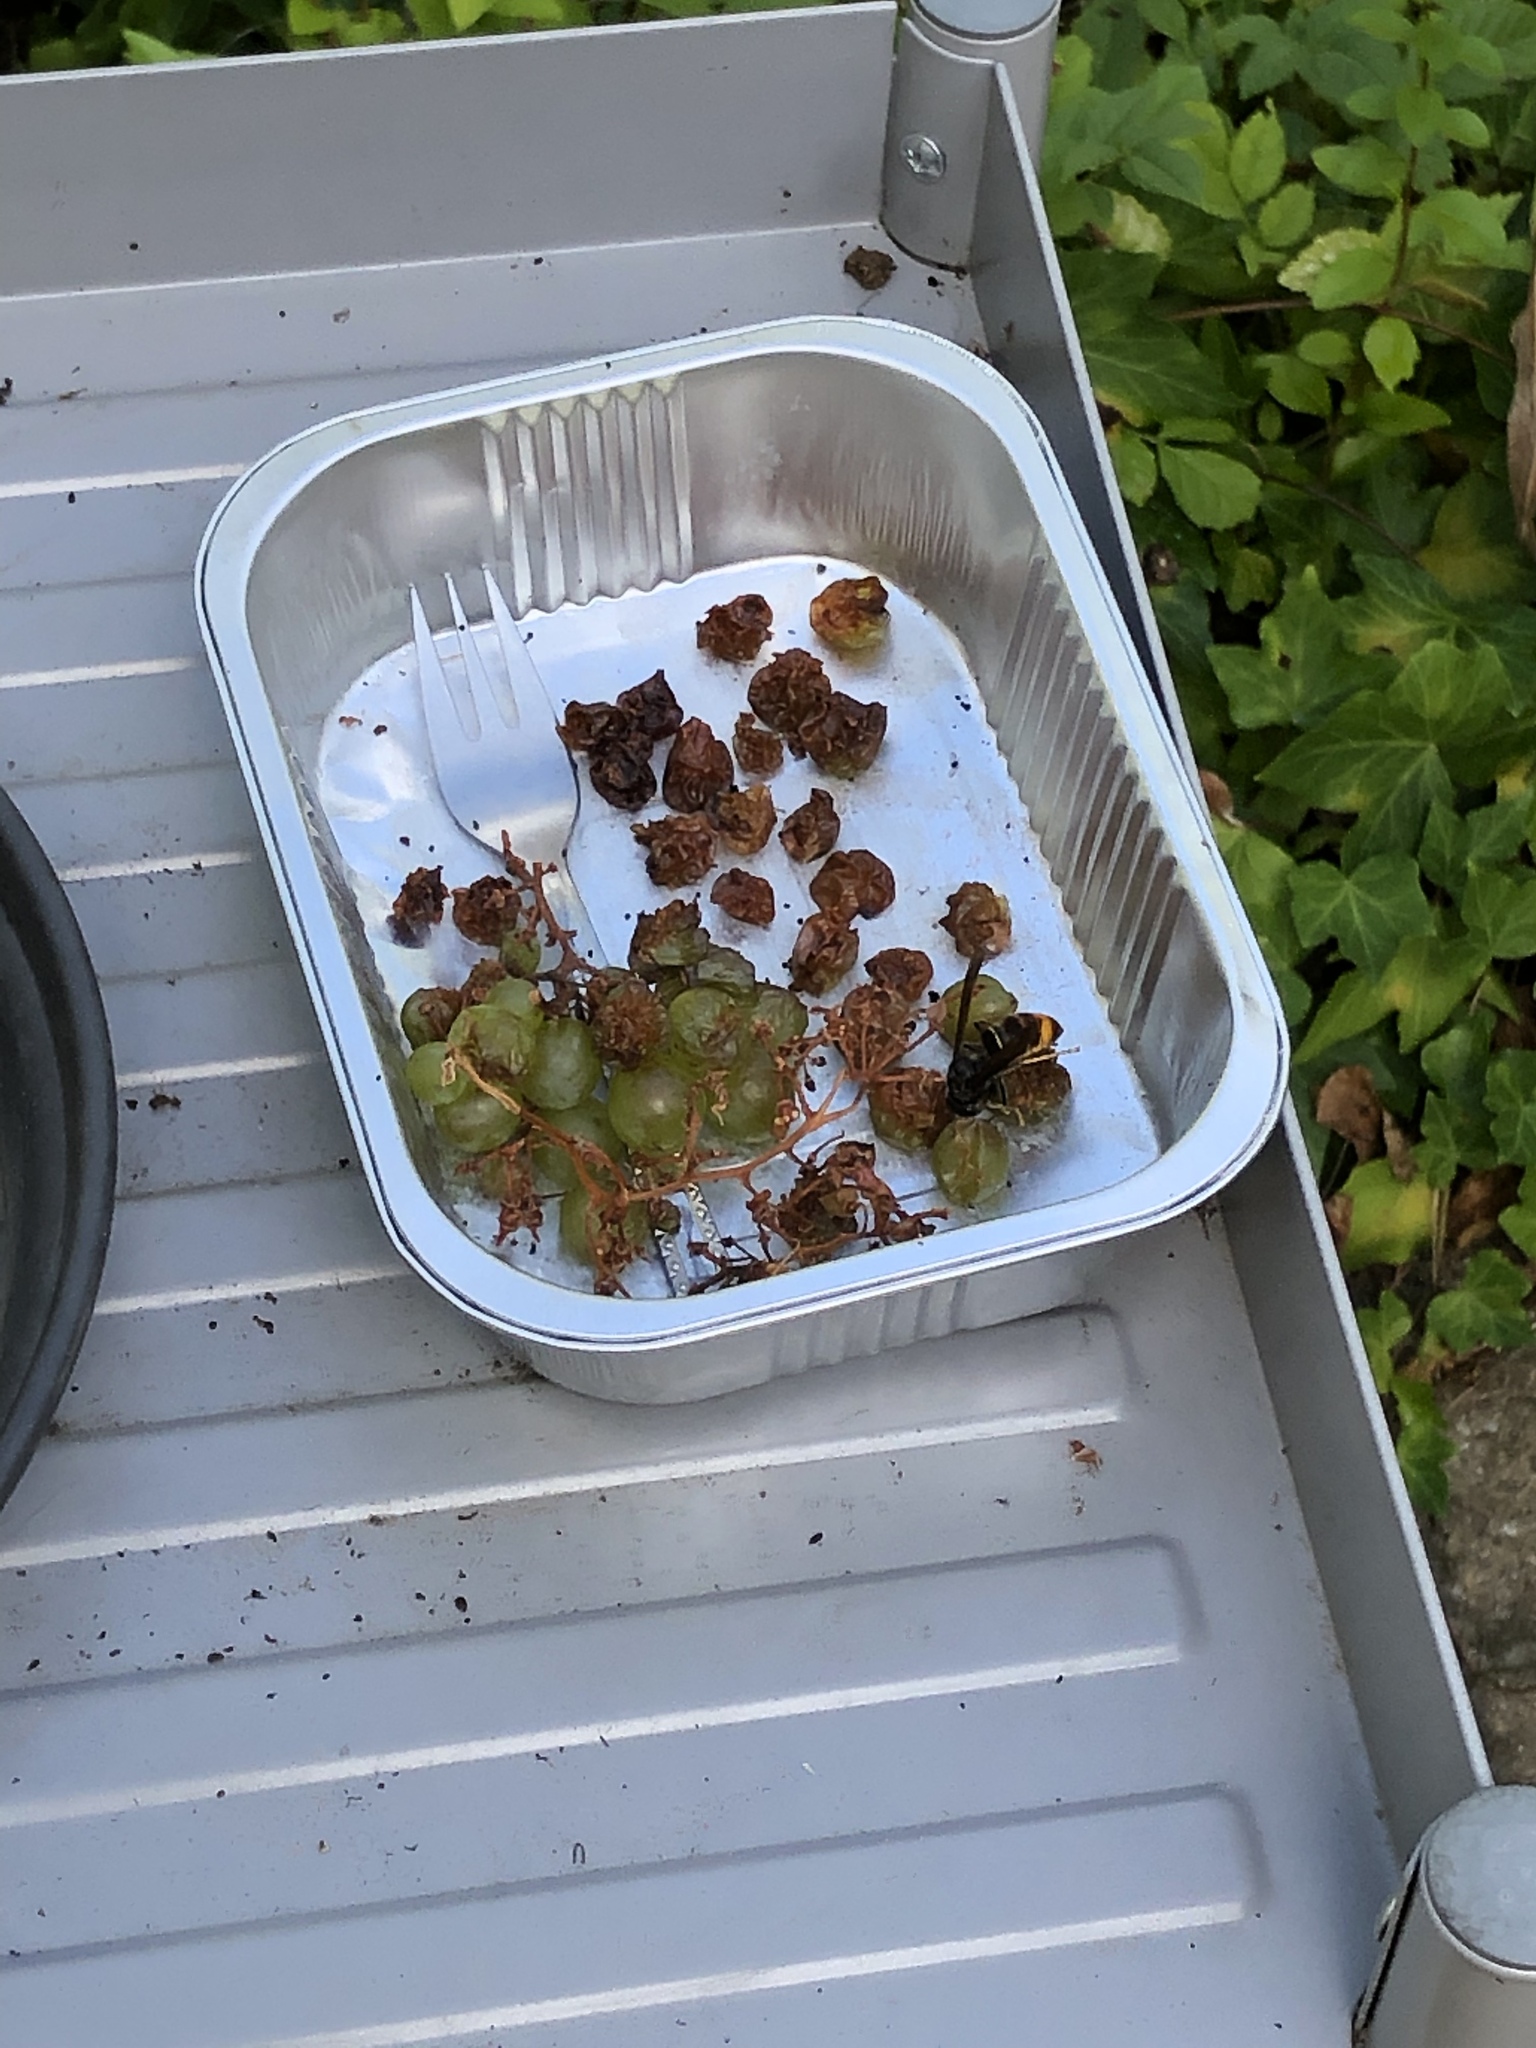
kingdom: Animalia
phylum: Arthropoda
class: Insecta
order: Hymenoptera
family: Vespidae
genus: Vespa
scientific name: Vespa velutina
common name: Asian hornet
